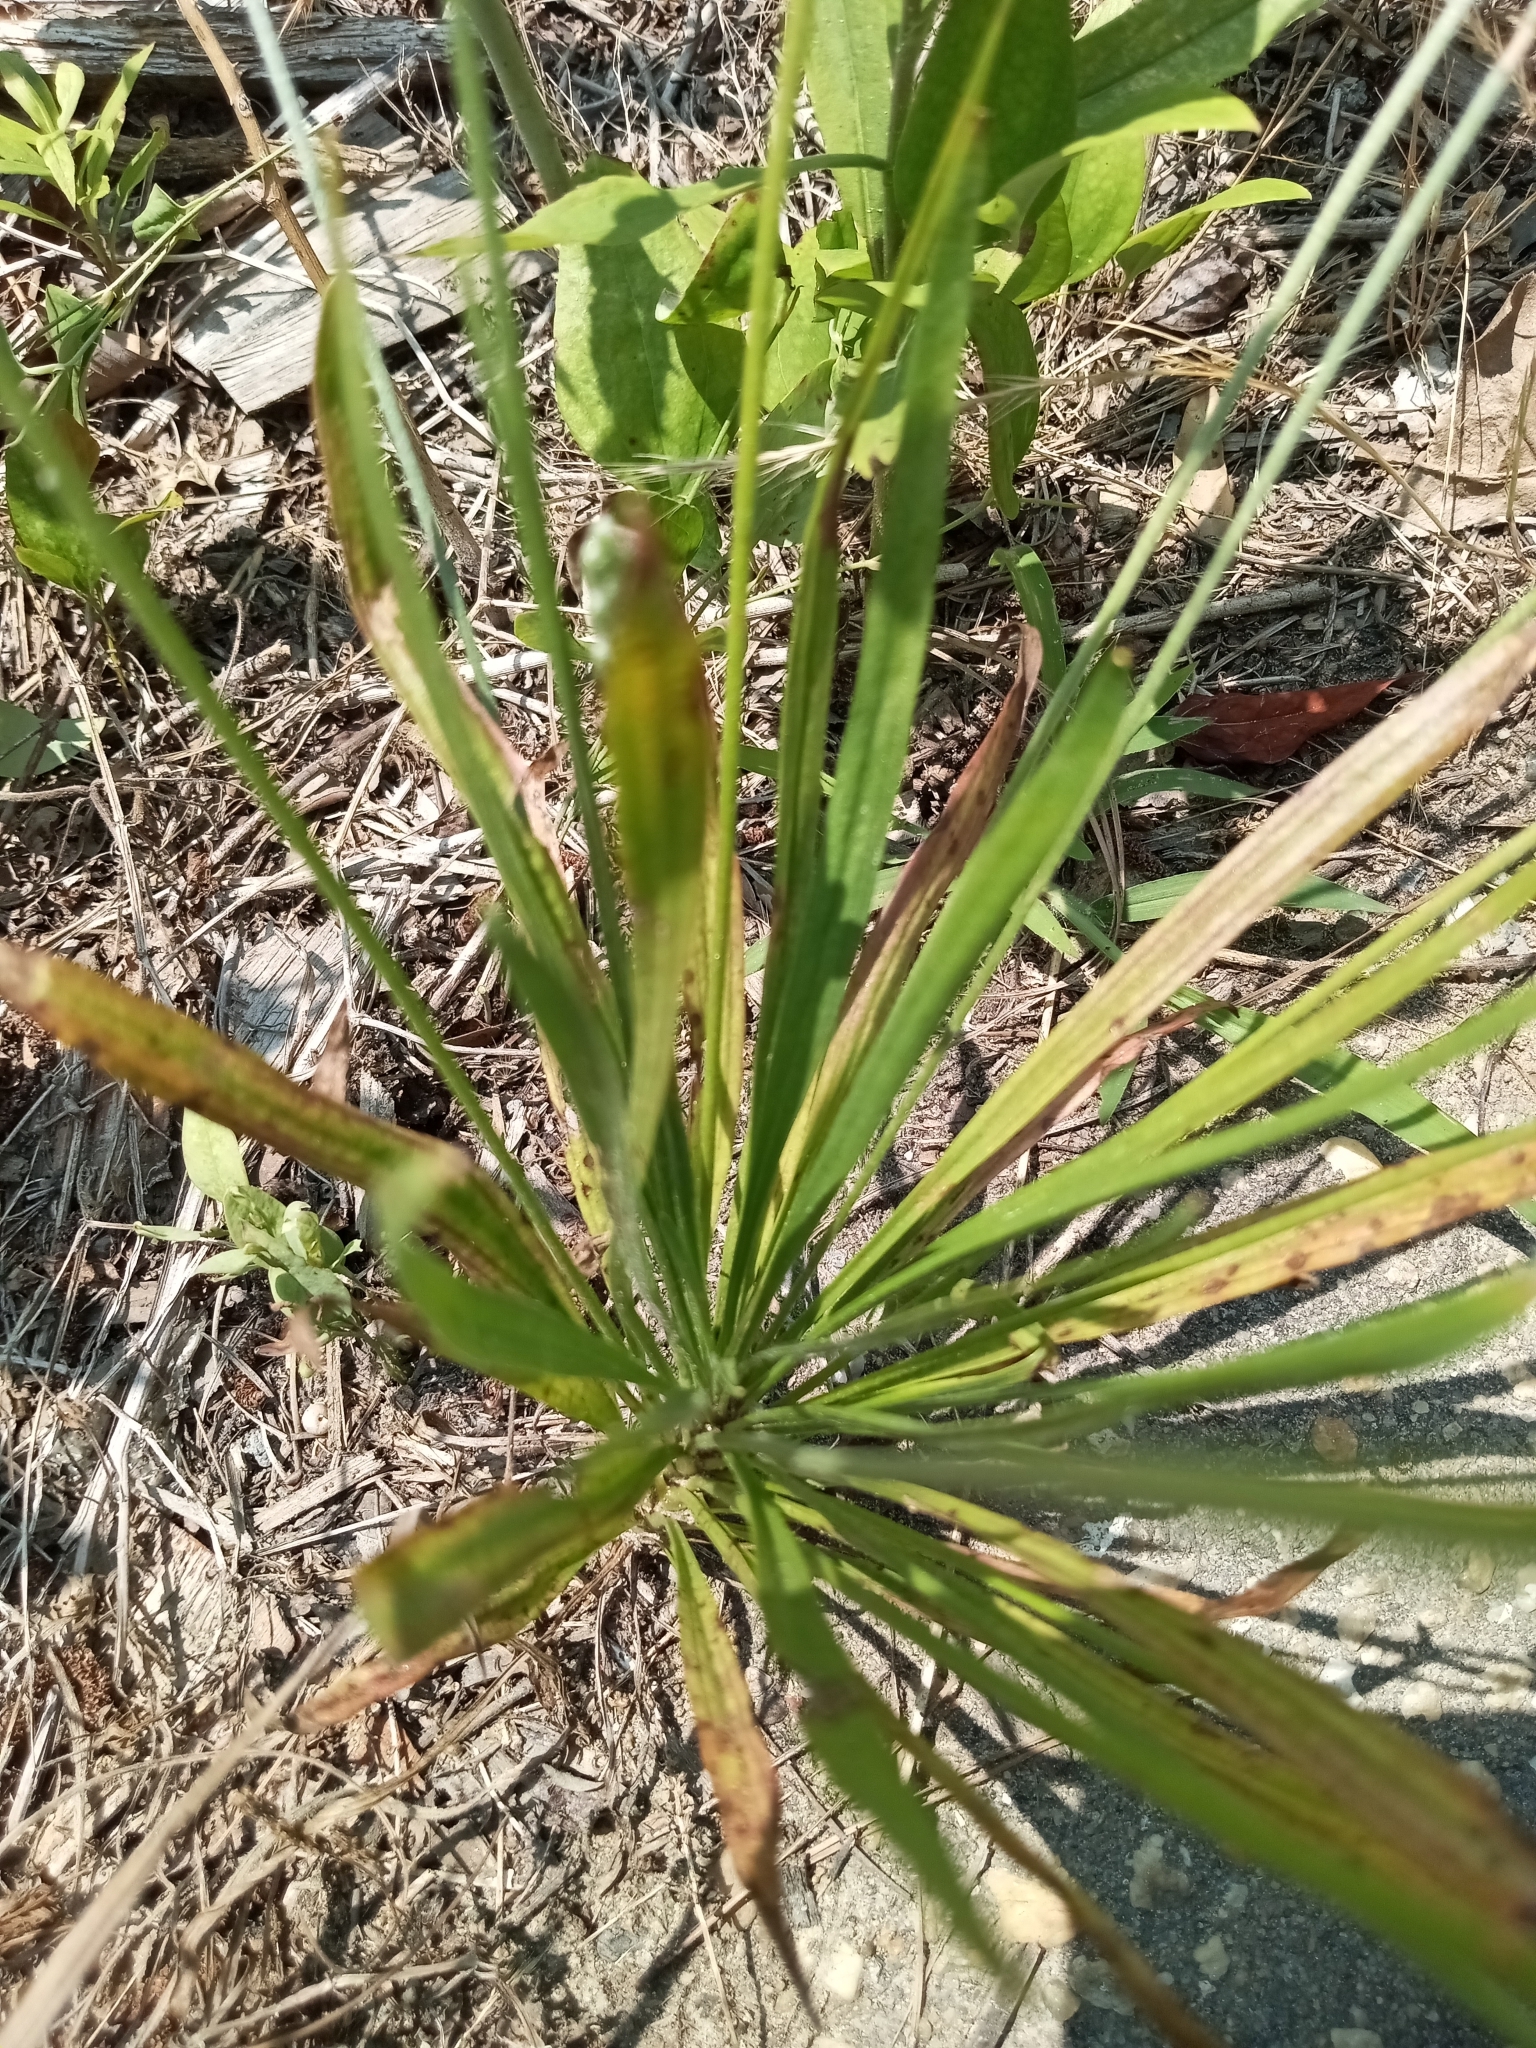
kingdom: Plantae
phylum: Tracheophyta
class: Magnoliopsida
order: Lamiales
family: Plantaginaceae
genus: Plantago
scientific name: Plantago wrightiana
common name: Wright's plantain
